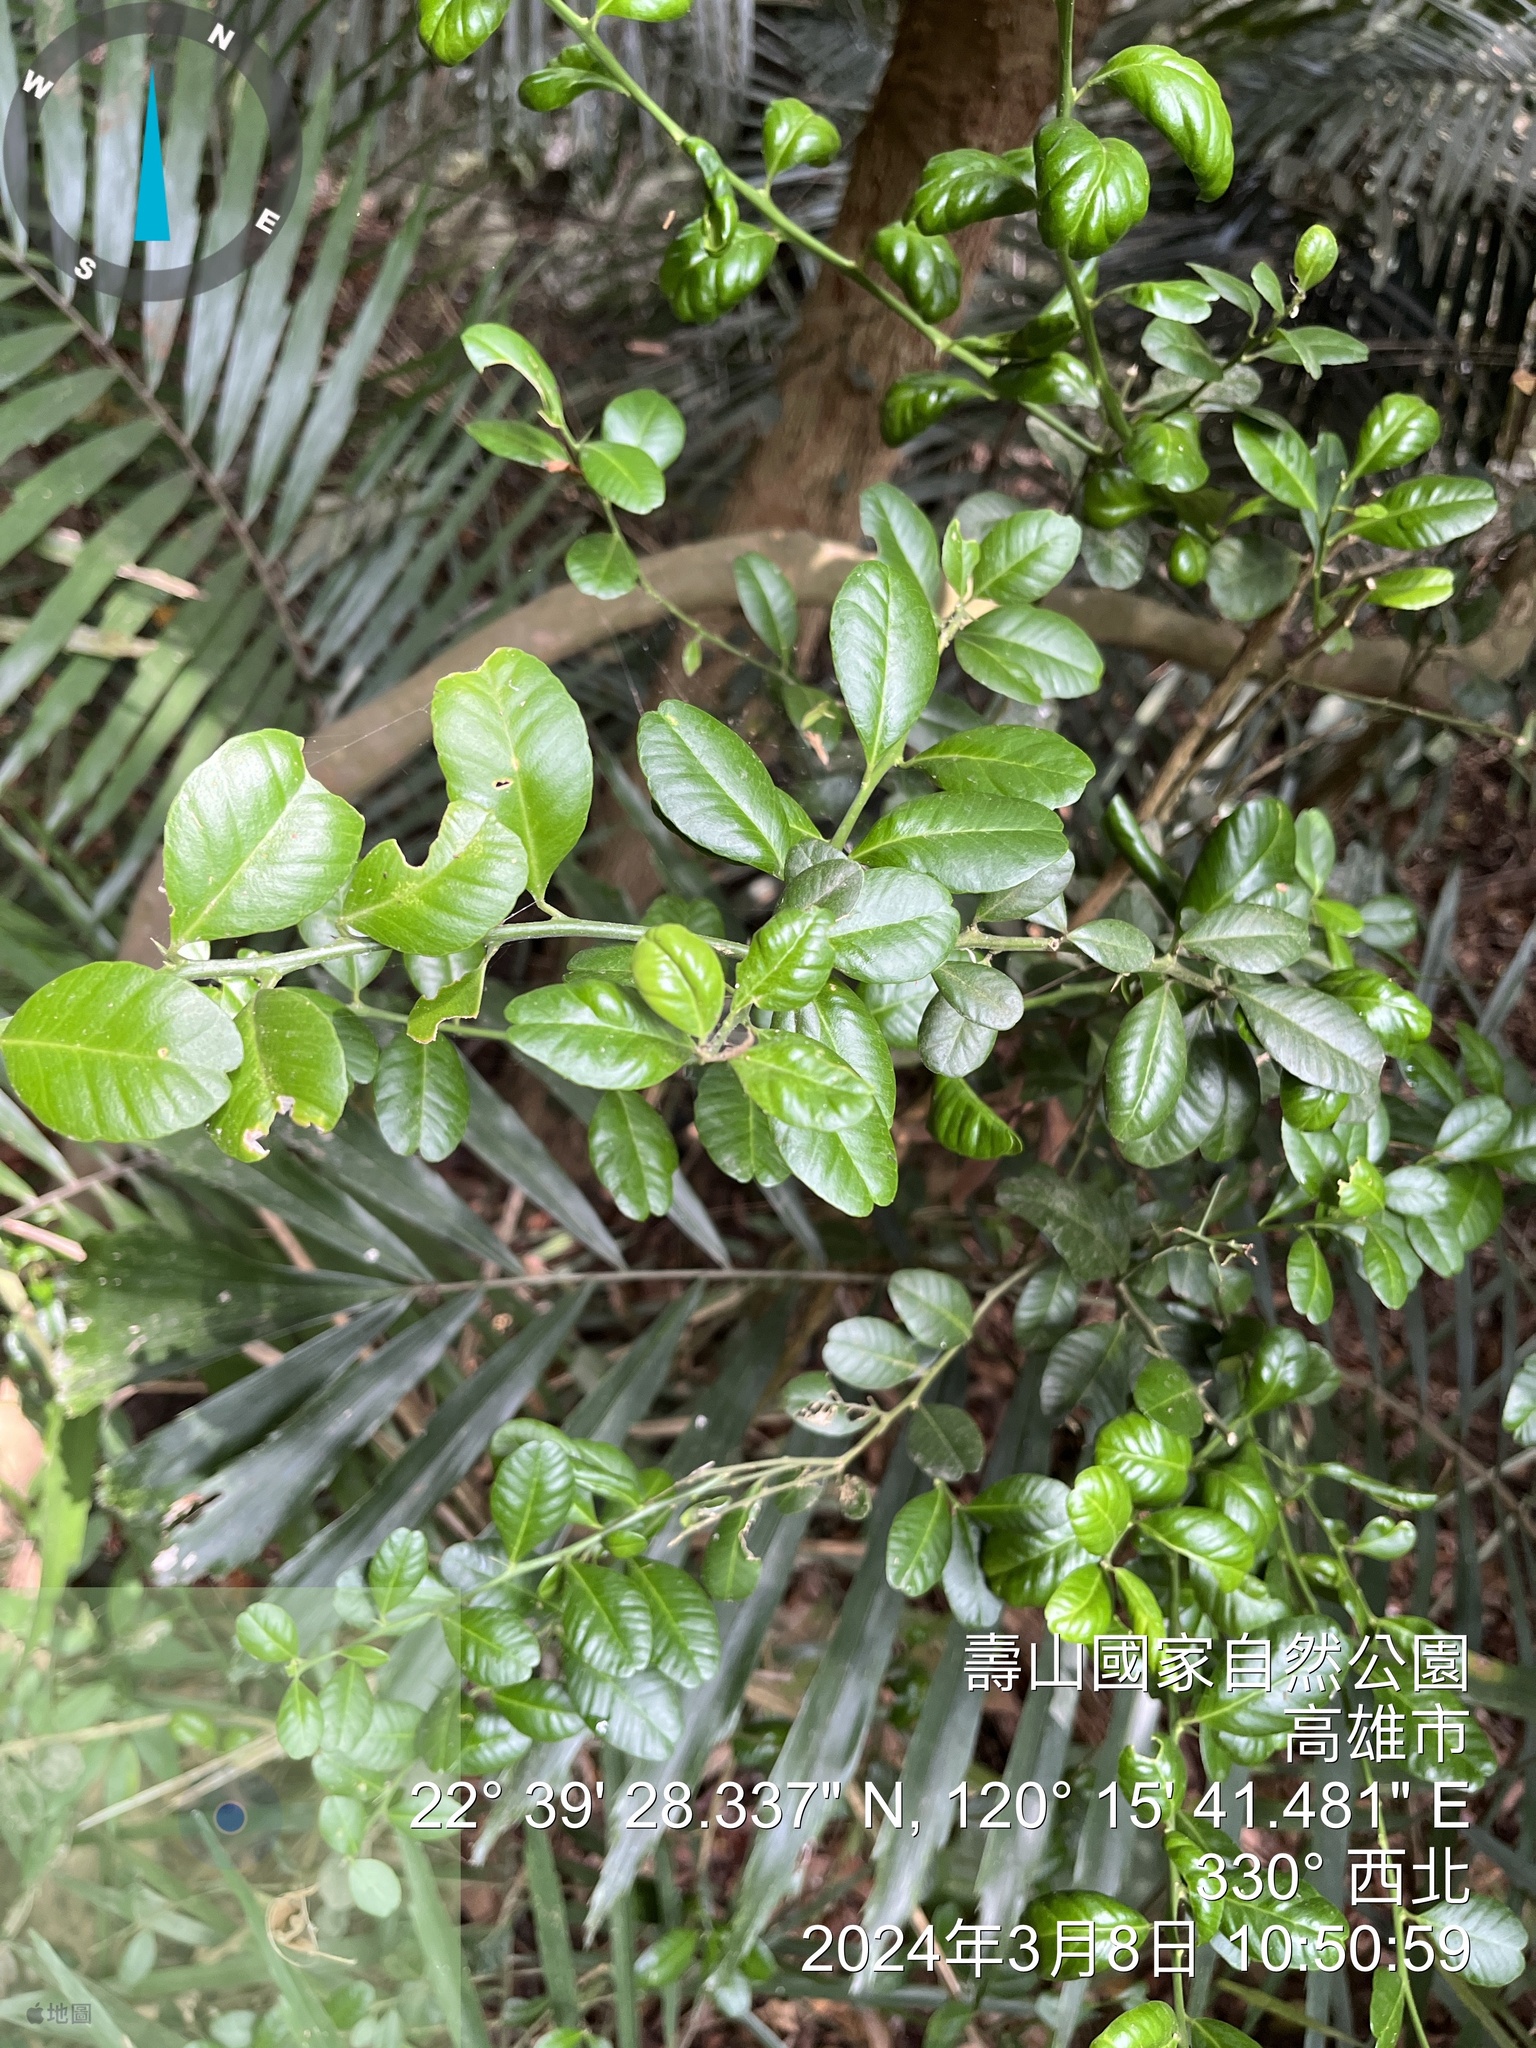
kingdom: Plantae
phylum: Tracheophyta
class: Magnoliopsida
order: Sapindales
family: Rutaceae
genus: Atalantia
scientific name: Atalantia buxifolia
